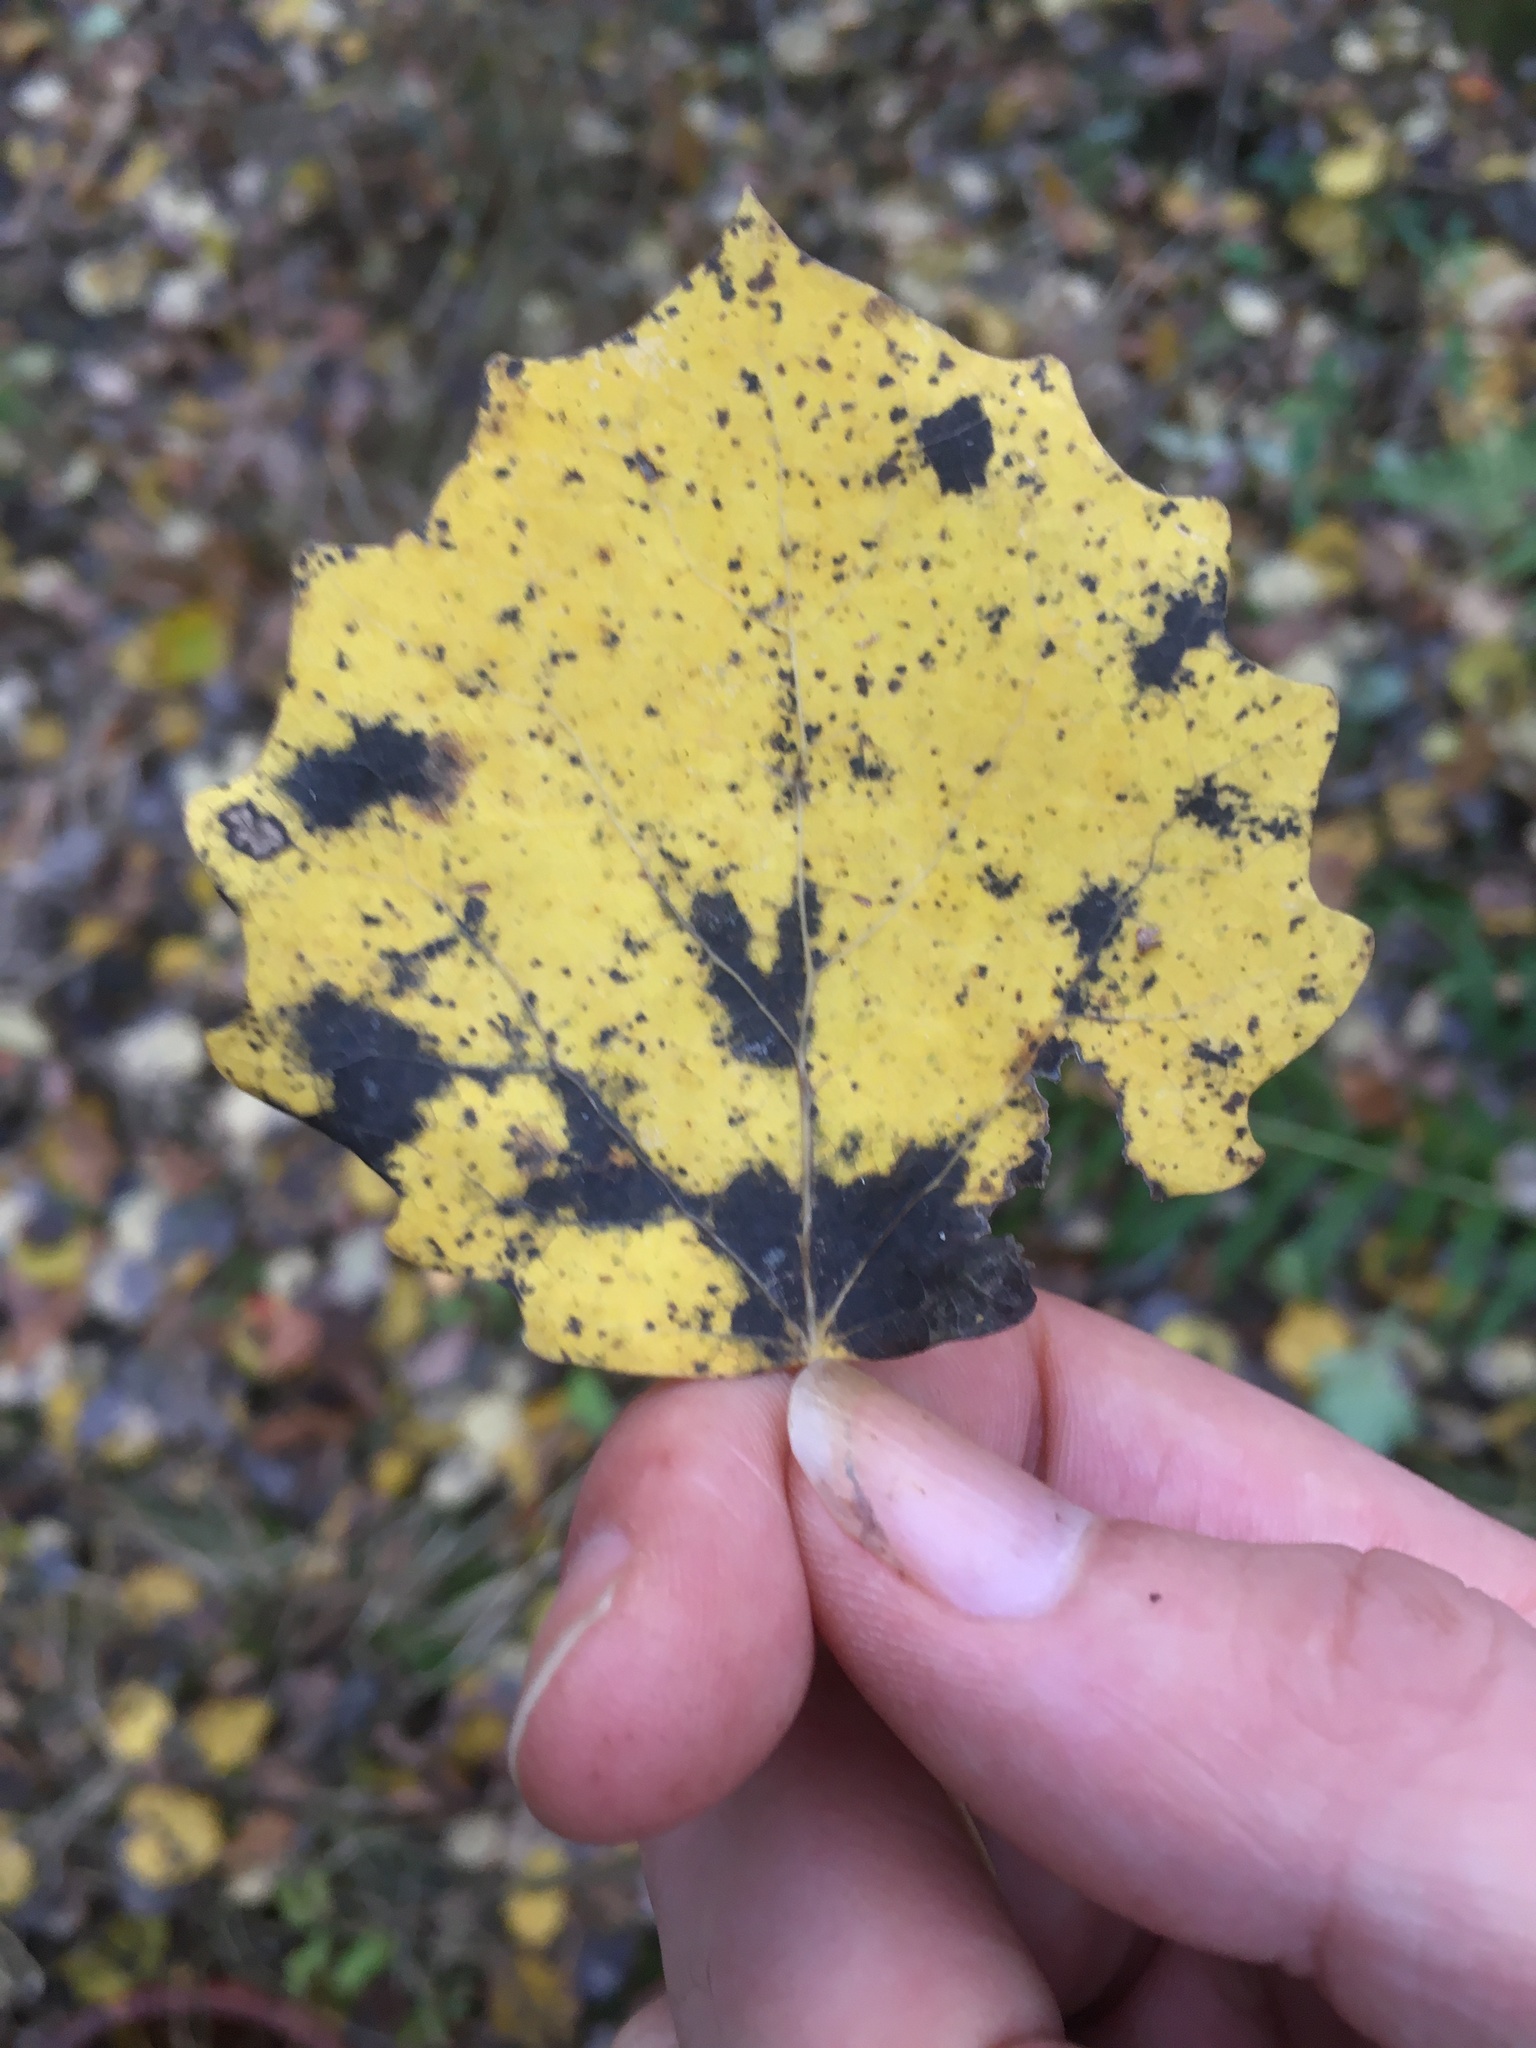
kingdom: Plantae
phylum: Tracheophyta
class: Magnoliopsida
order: Malpighiales
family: Salicaceae
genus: Populus
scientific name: Populus tremula
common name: European aspen
